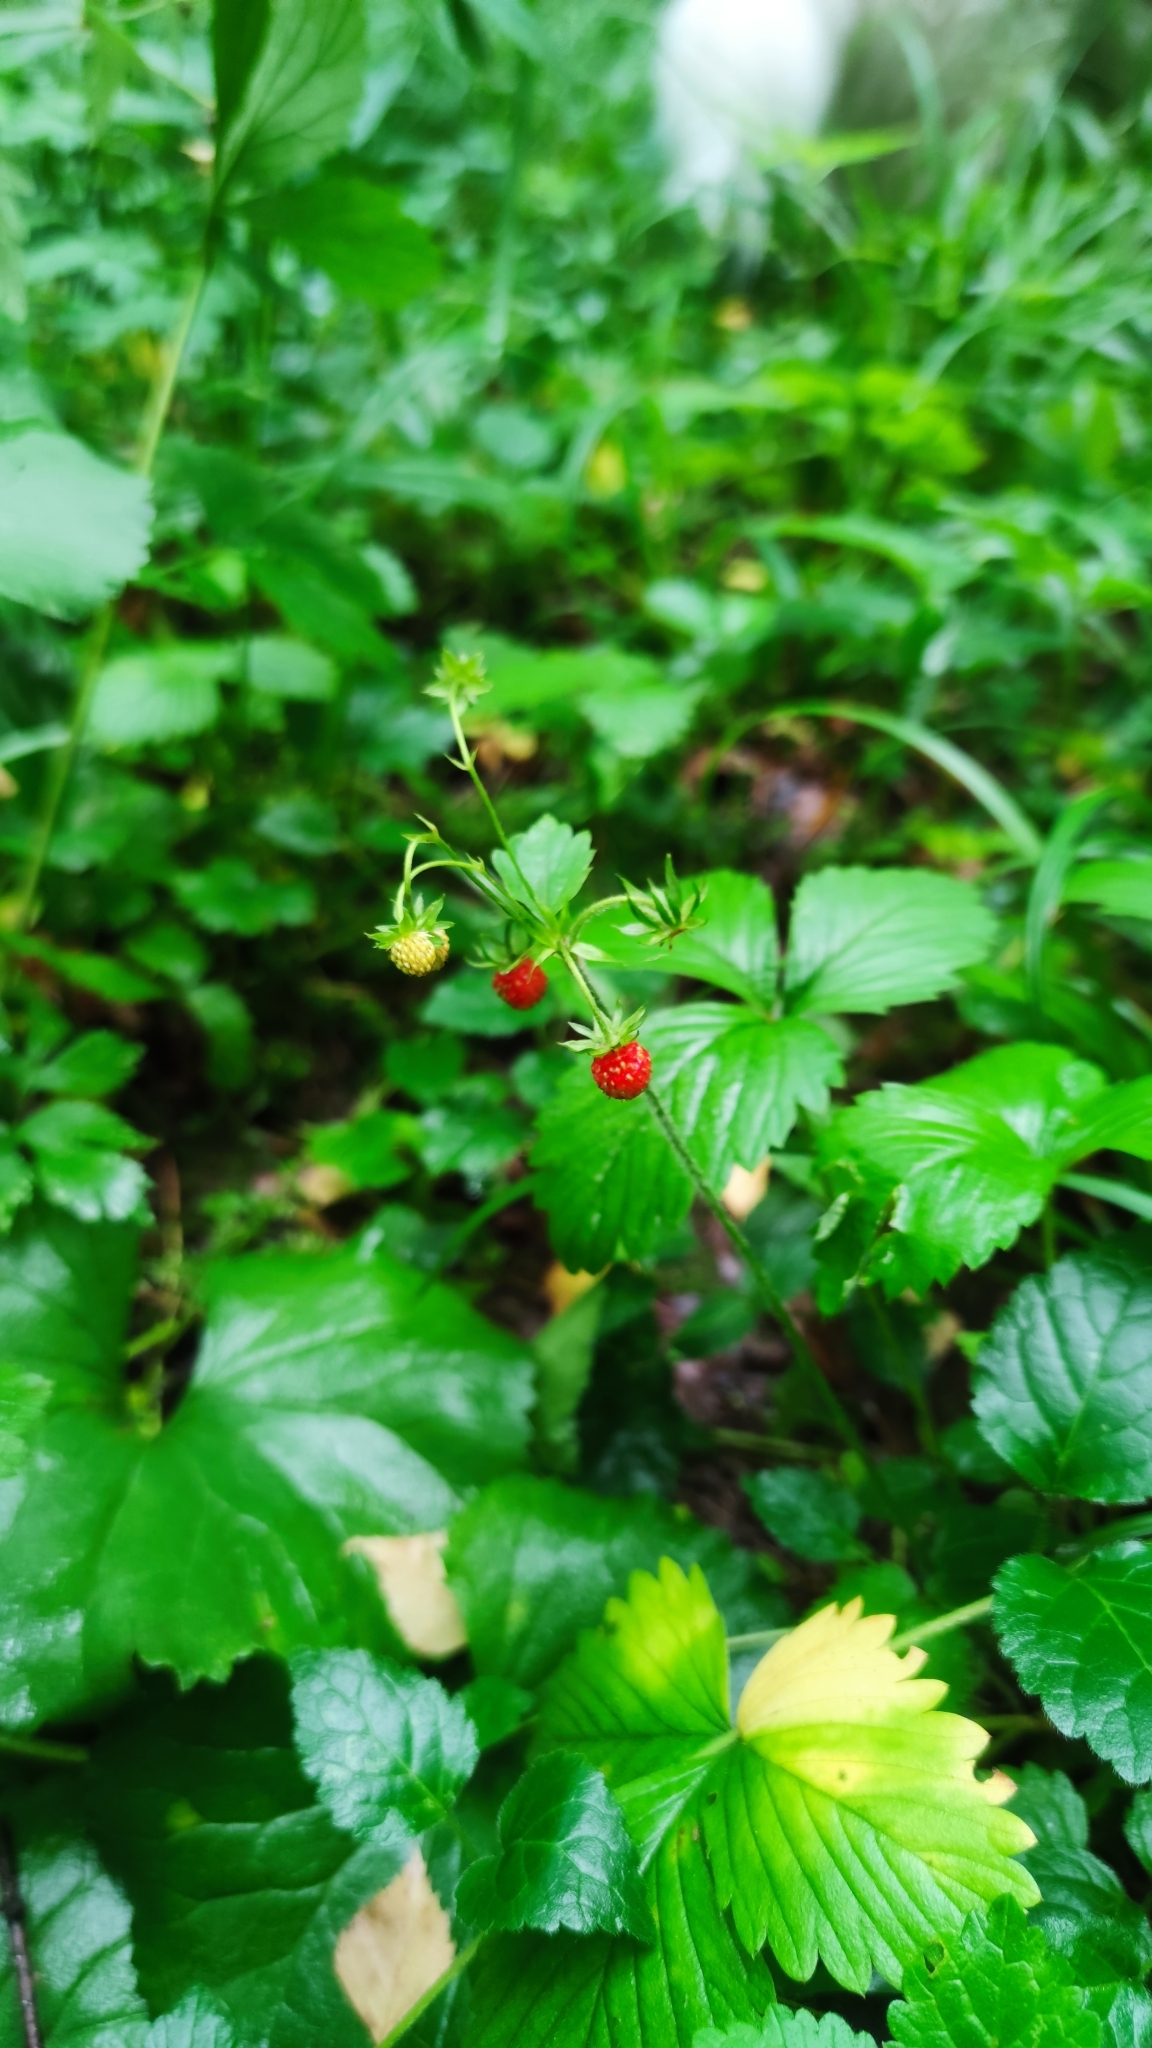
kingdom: Plantae
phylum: Tracheophyta
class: Magnoliopsida
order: Rosales
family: Rosaceae
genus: Fragaria
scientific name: Fragaria vesca
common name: Wild strawberry
